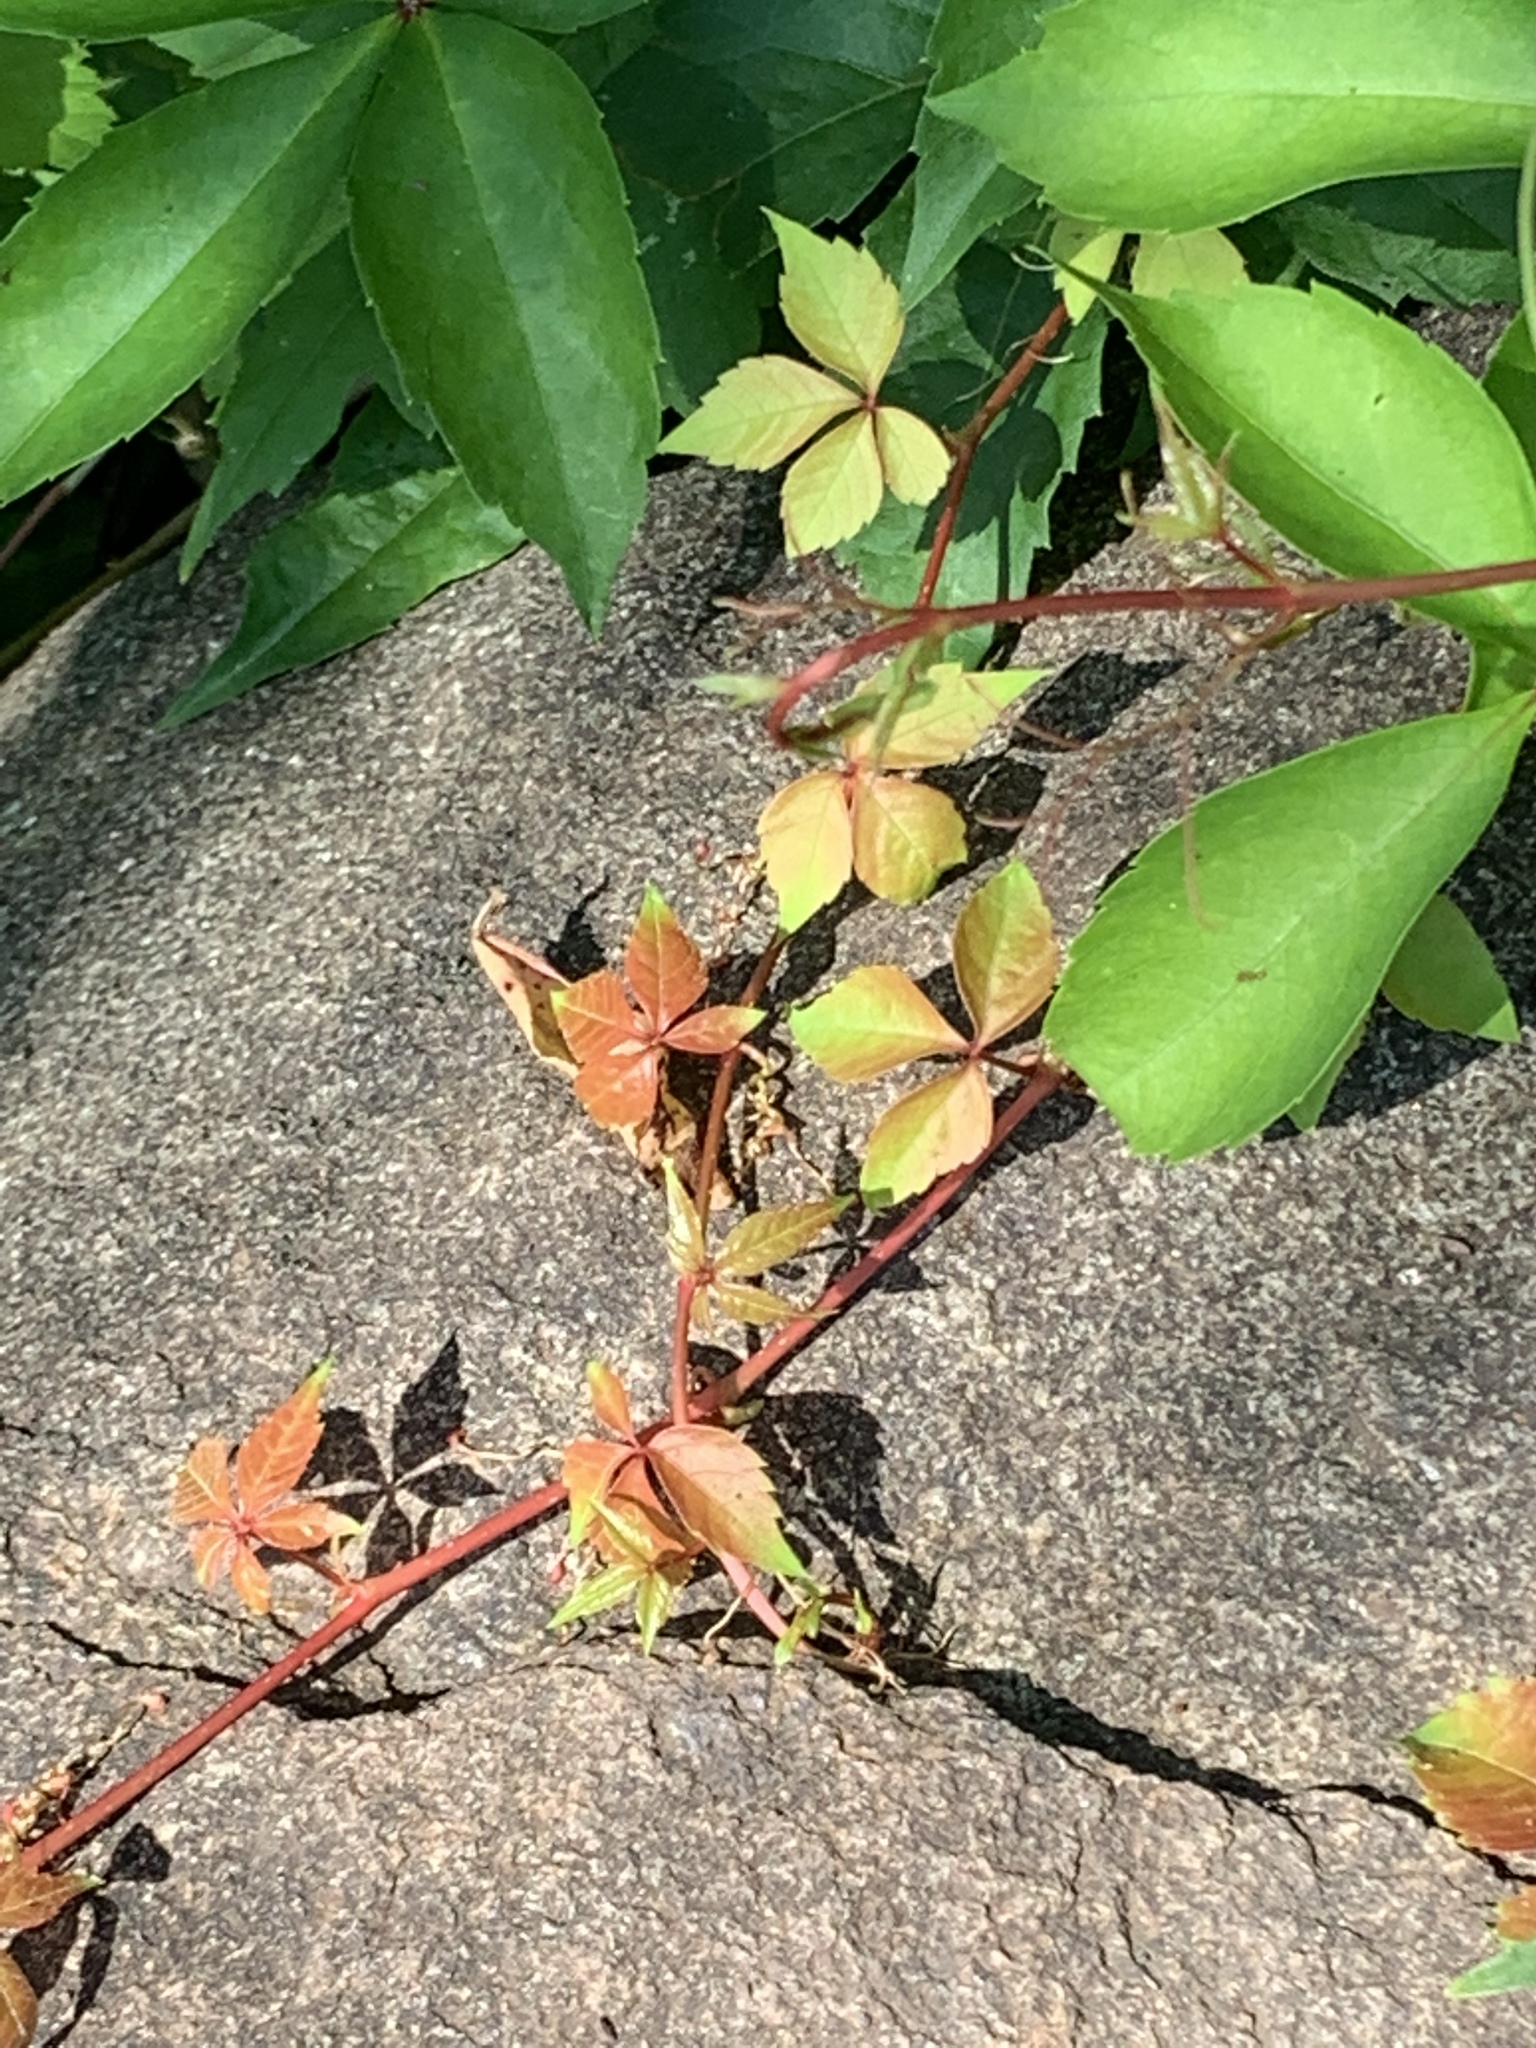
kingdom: Plantae
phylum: Tracheophyta
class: Magnoliopsida
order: Vitales
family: Vitaceae
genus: Parthenocissus
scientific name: Parthenocissus quinquefolia
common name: Virginia-creeper
